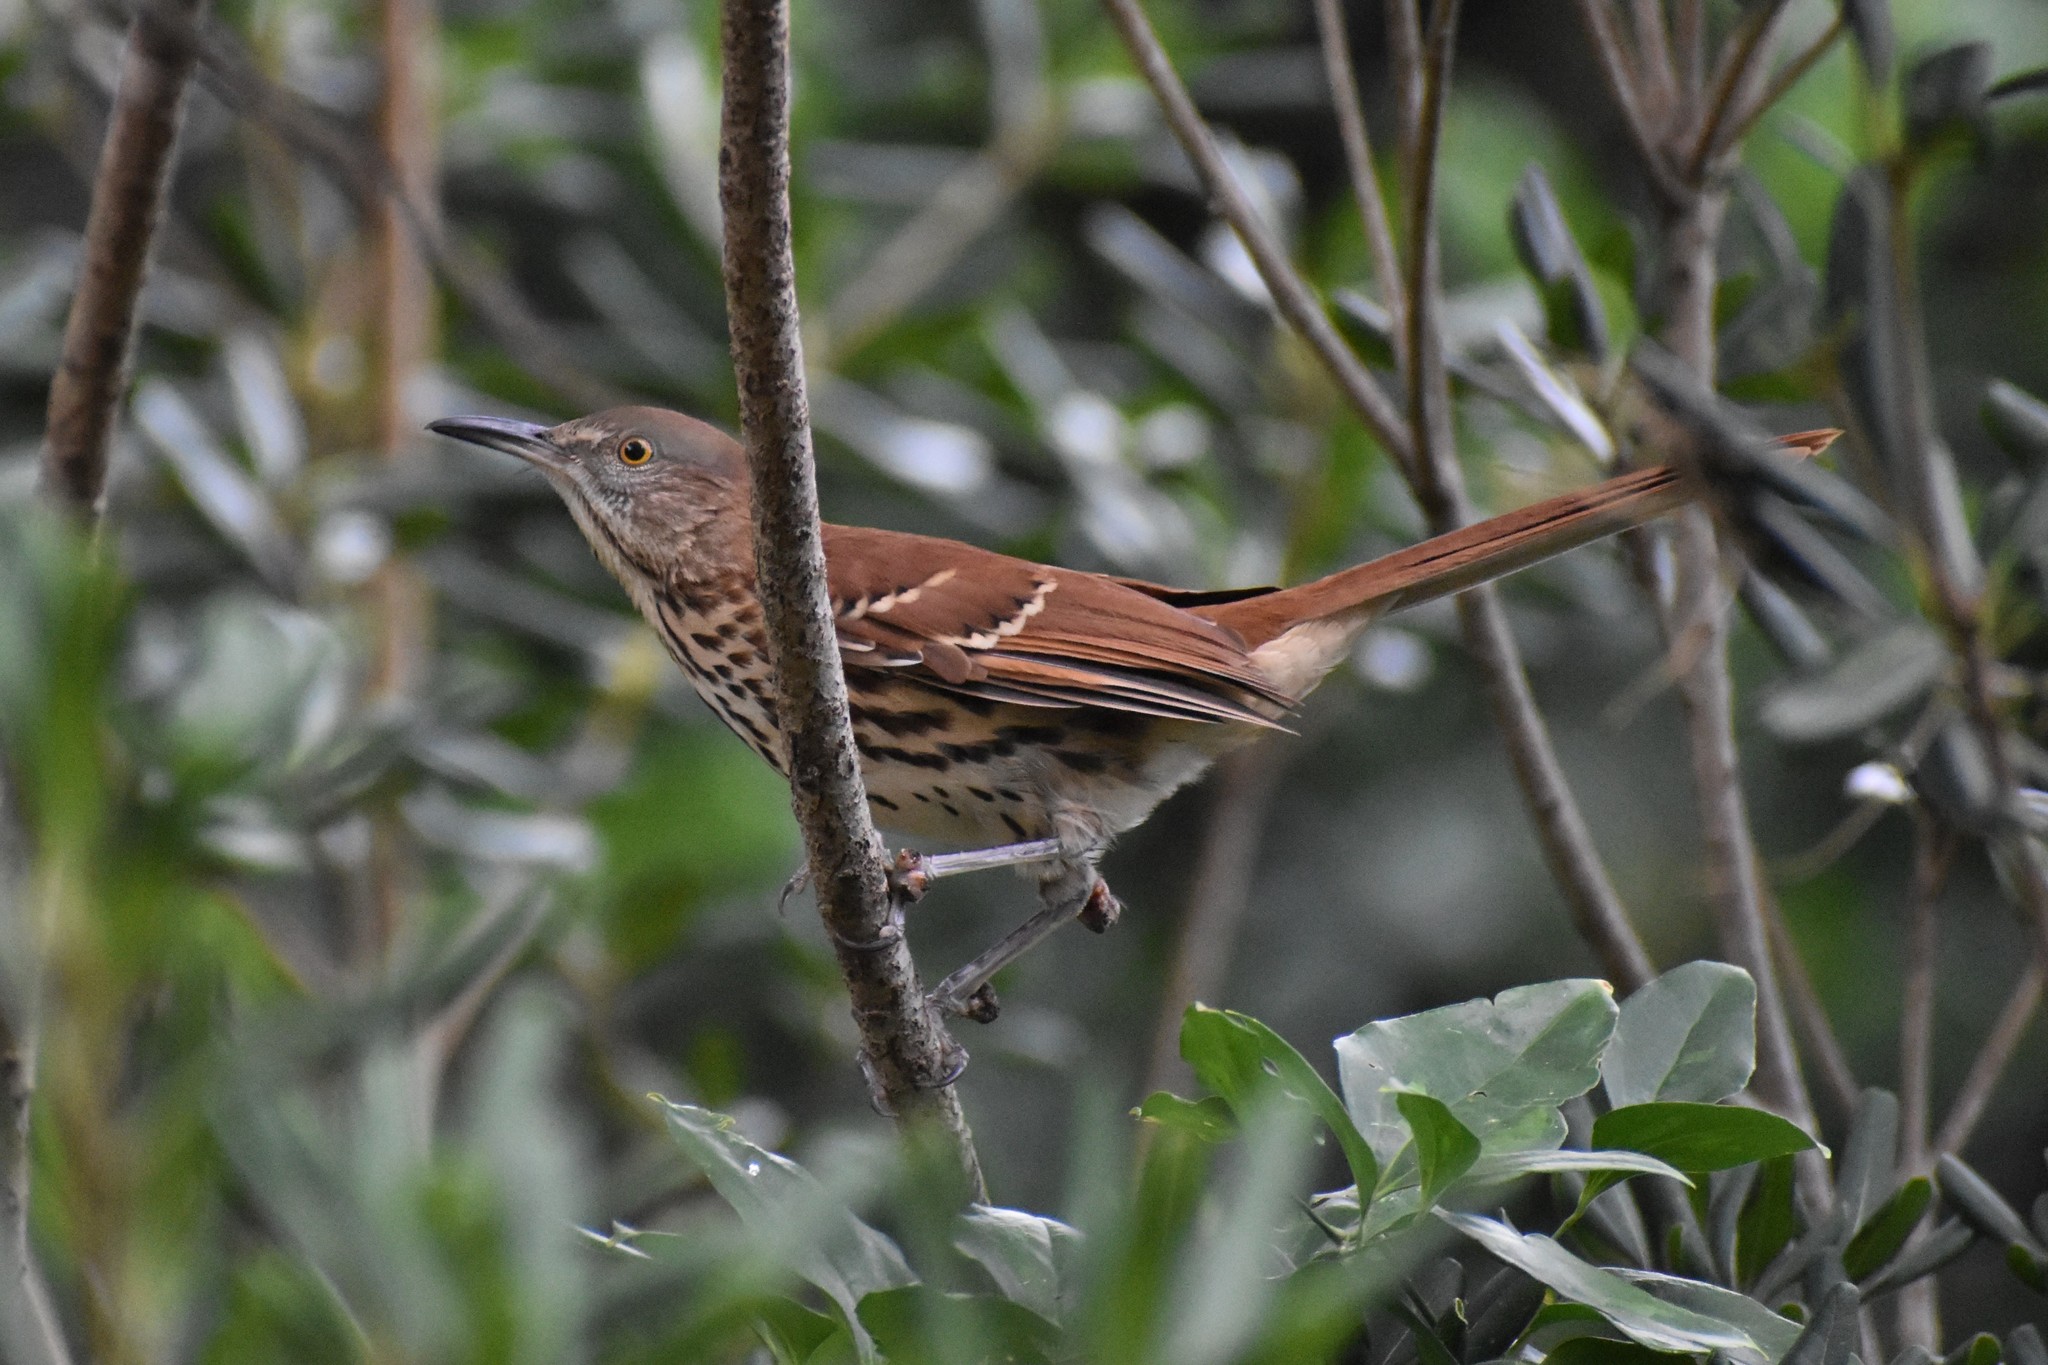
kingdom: Animalia
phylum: Chordata
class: Aves
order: Passeriformes
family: Mimidae
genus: Toxostoma
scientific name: Toxostoma rufum
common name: Brown thrasher
